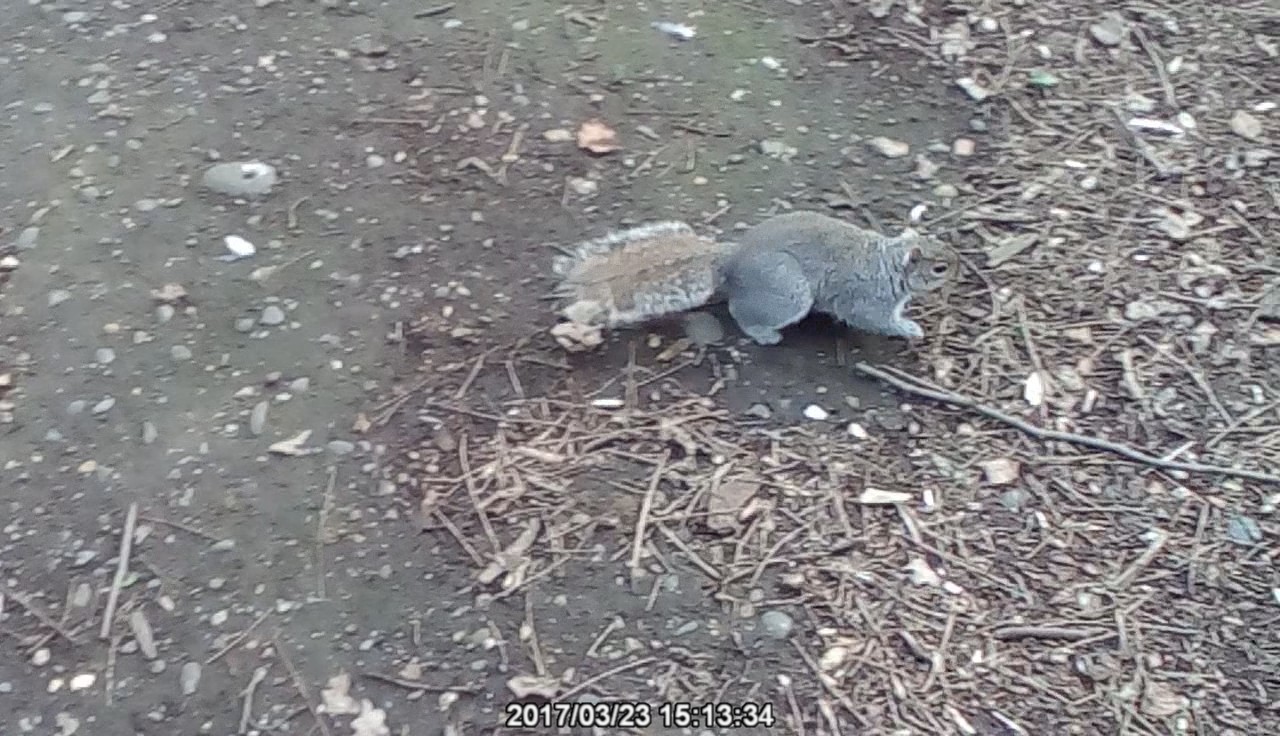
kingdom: Animalia
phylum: Chordata
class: Mammalia
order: Rodentia
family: Sciuridae
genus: Sciurus
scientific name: Sciurus carolinensis
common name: Eastern gray squirrel
